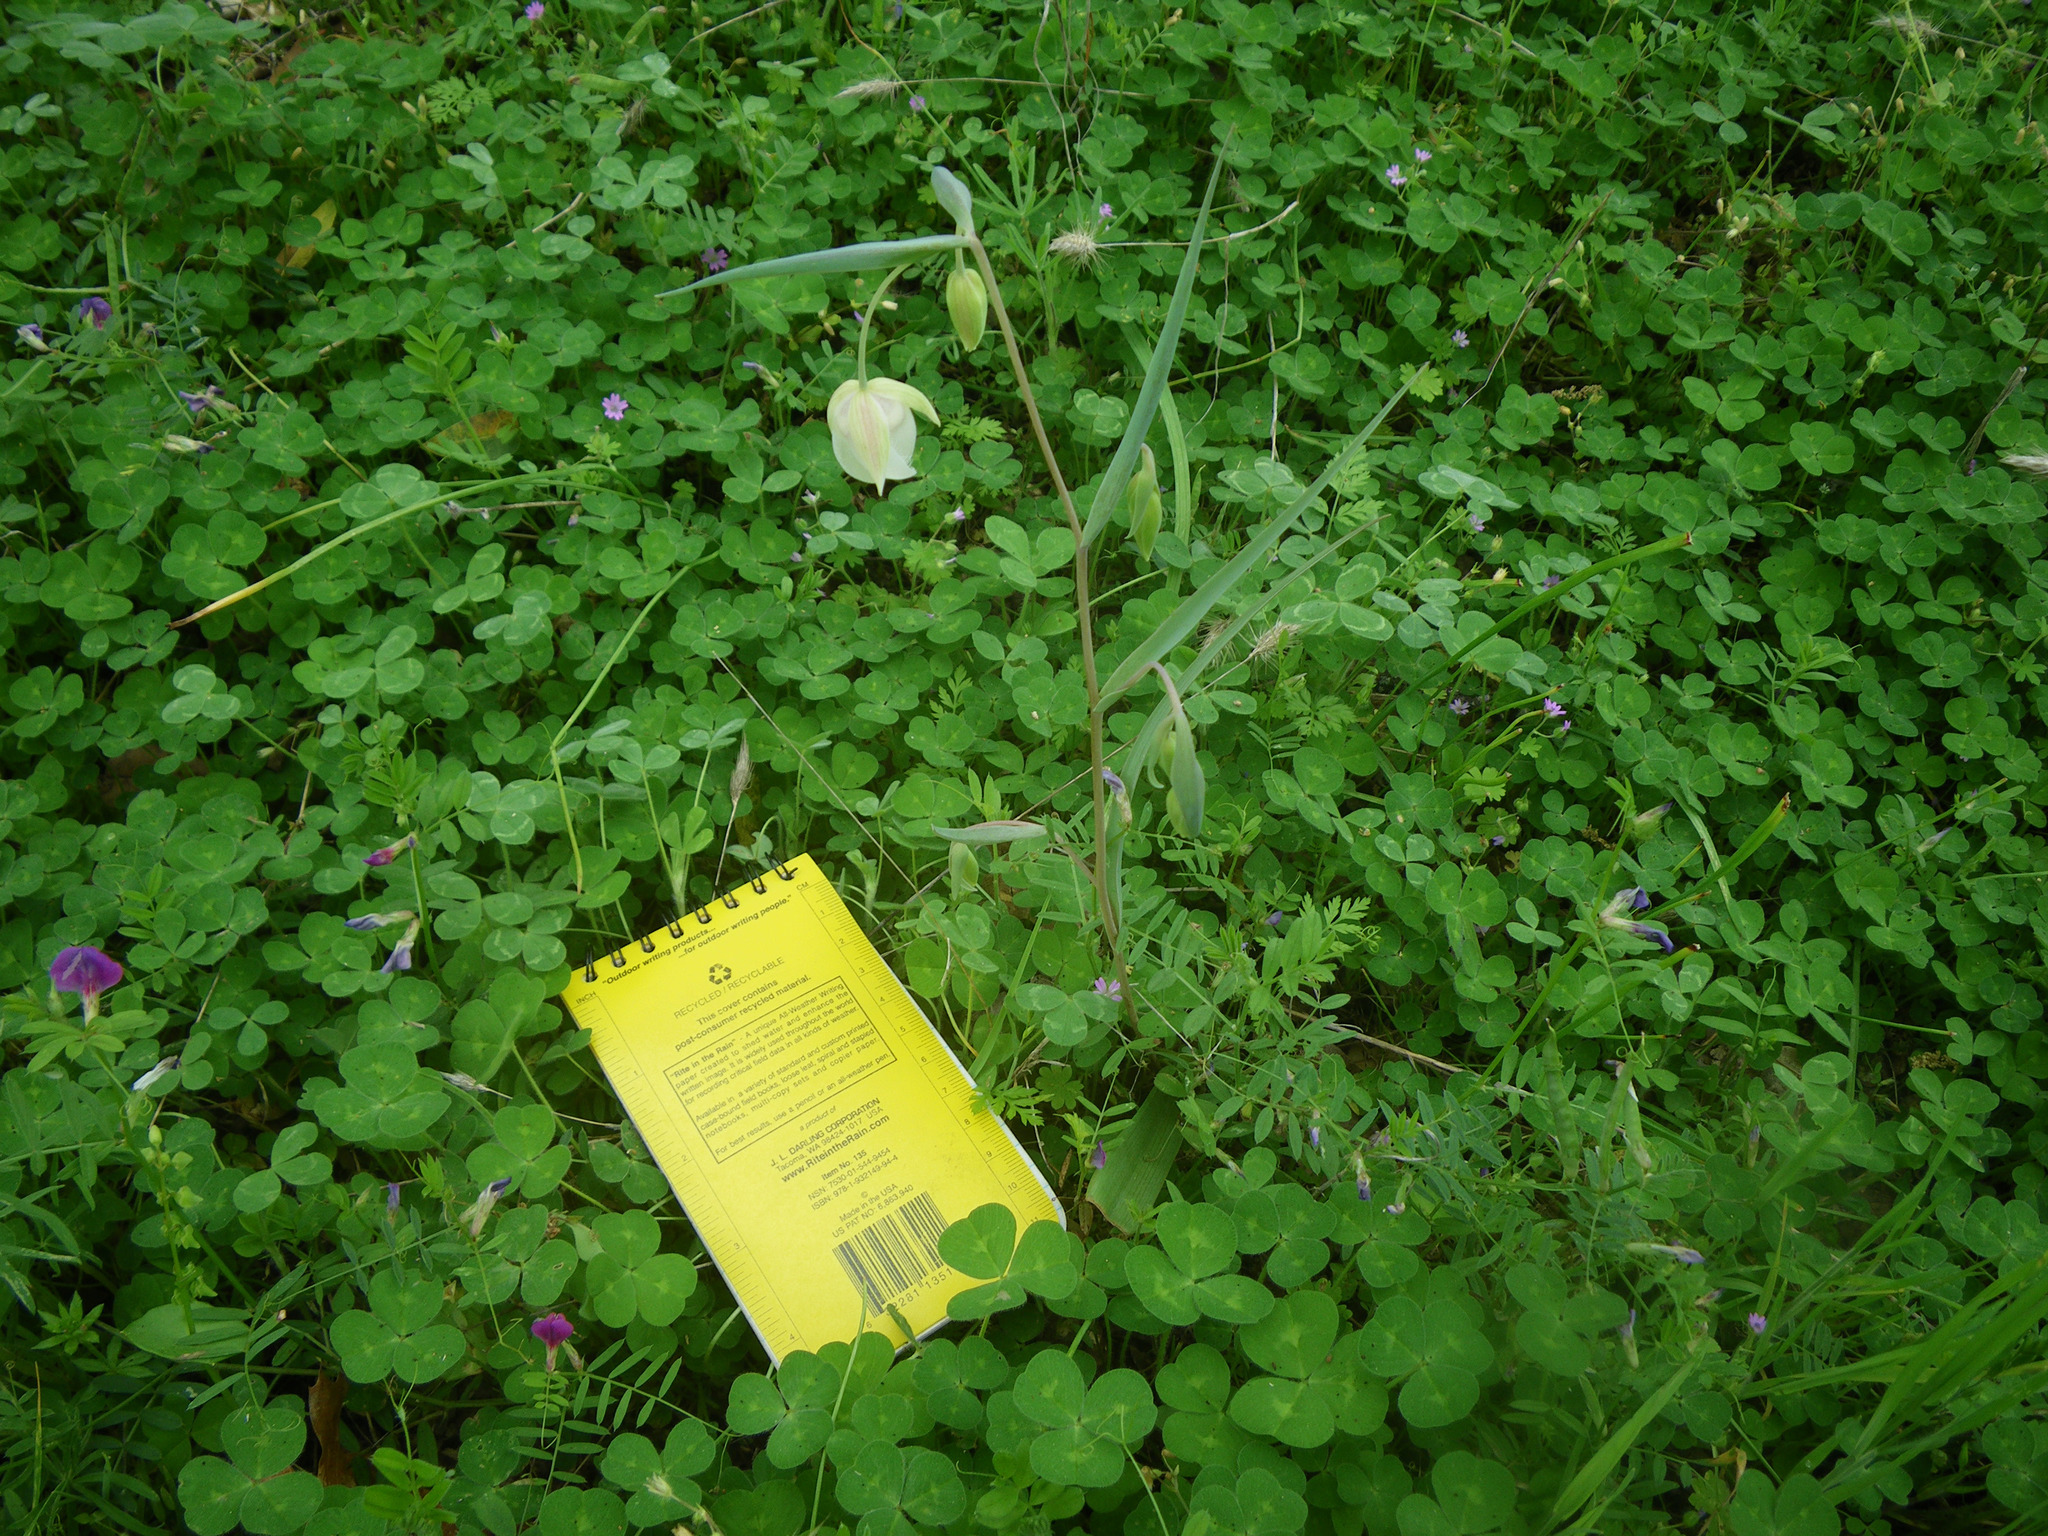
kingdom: Plantae
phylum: Tracheophyta
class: Liliopsida
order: Liliales
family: Liliaceae
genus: Calochortus
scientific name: Calochortus albus
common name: Fairy-lantern
